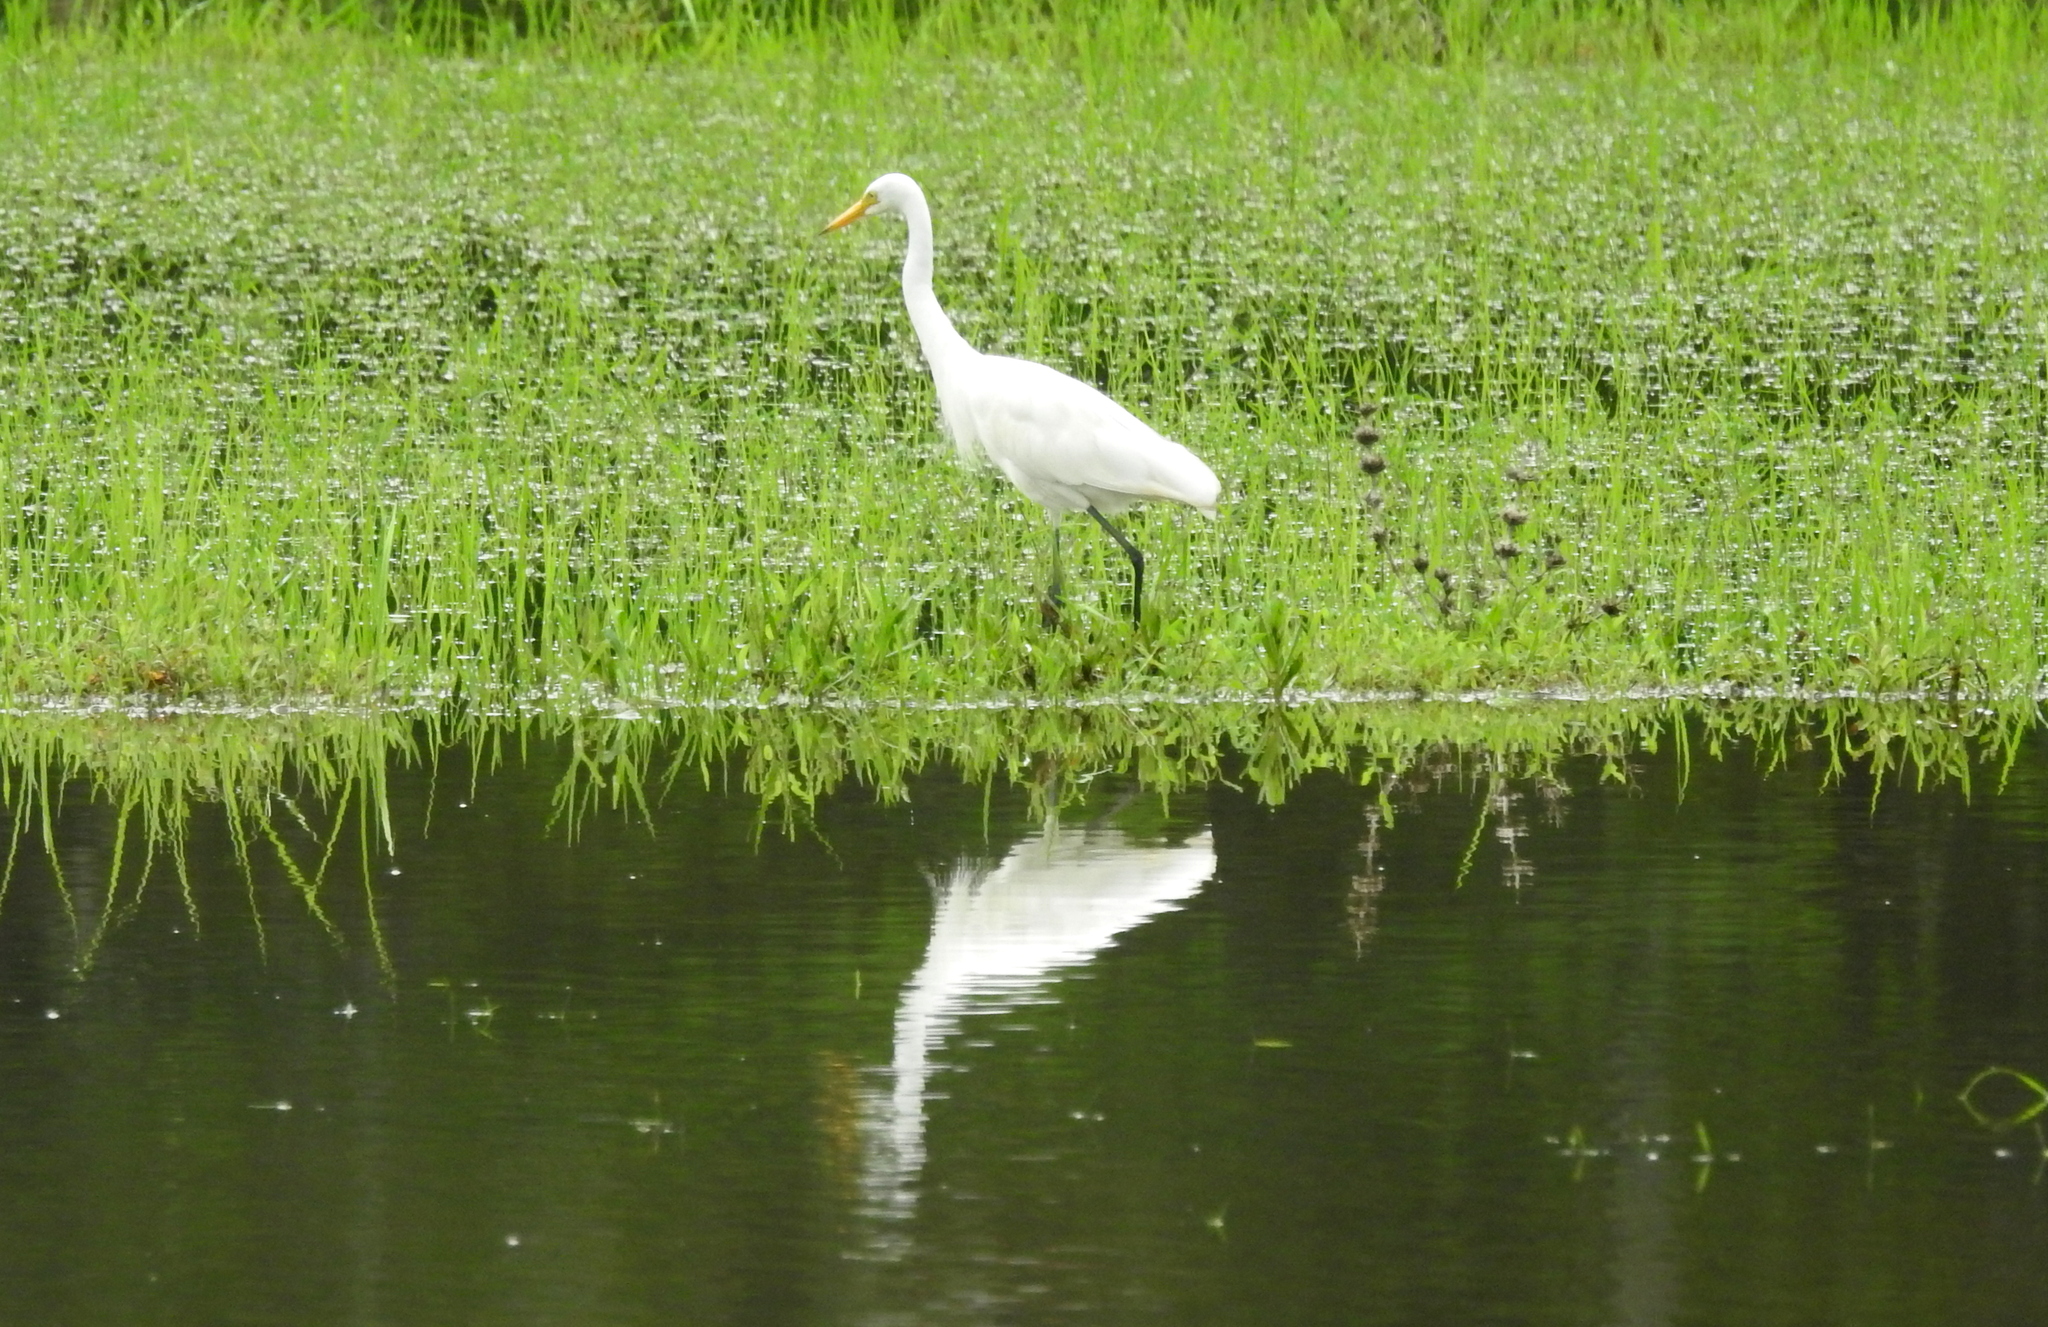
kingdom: Animalia
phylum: Chordata
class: Aves
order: Pelecaniformes
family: Ardeidae
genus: Egretta
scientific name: Egretta intermedia
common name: Intermediate egret
